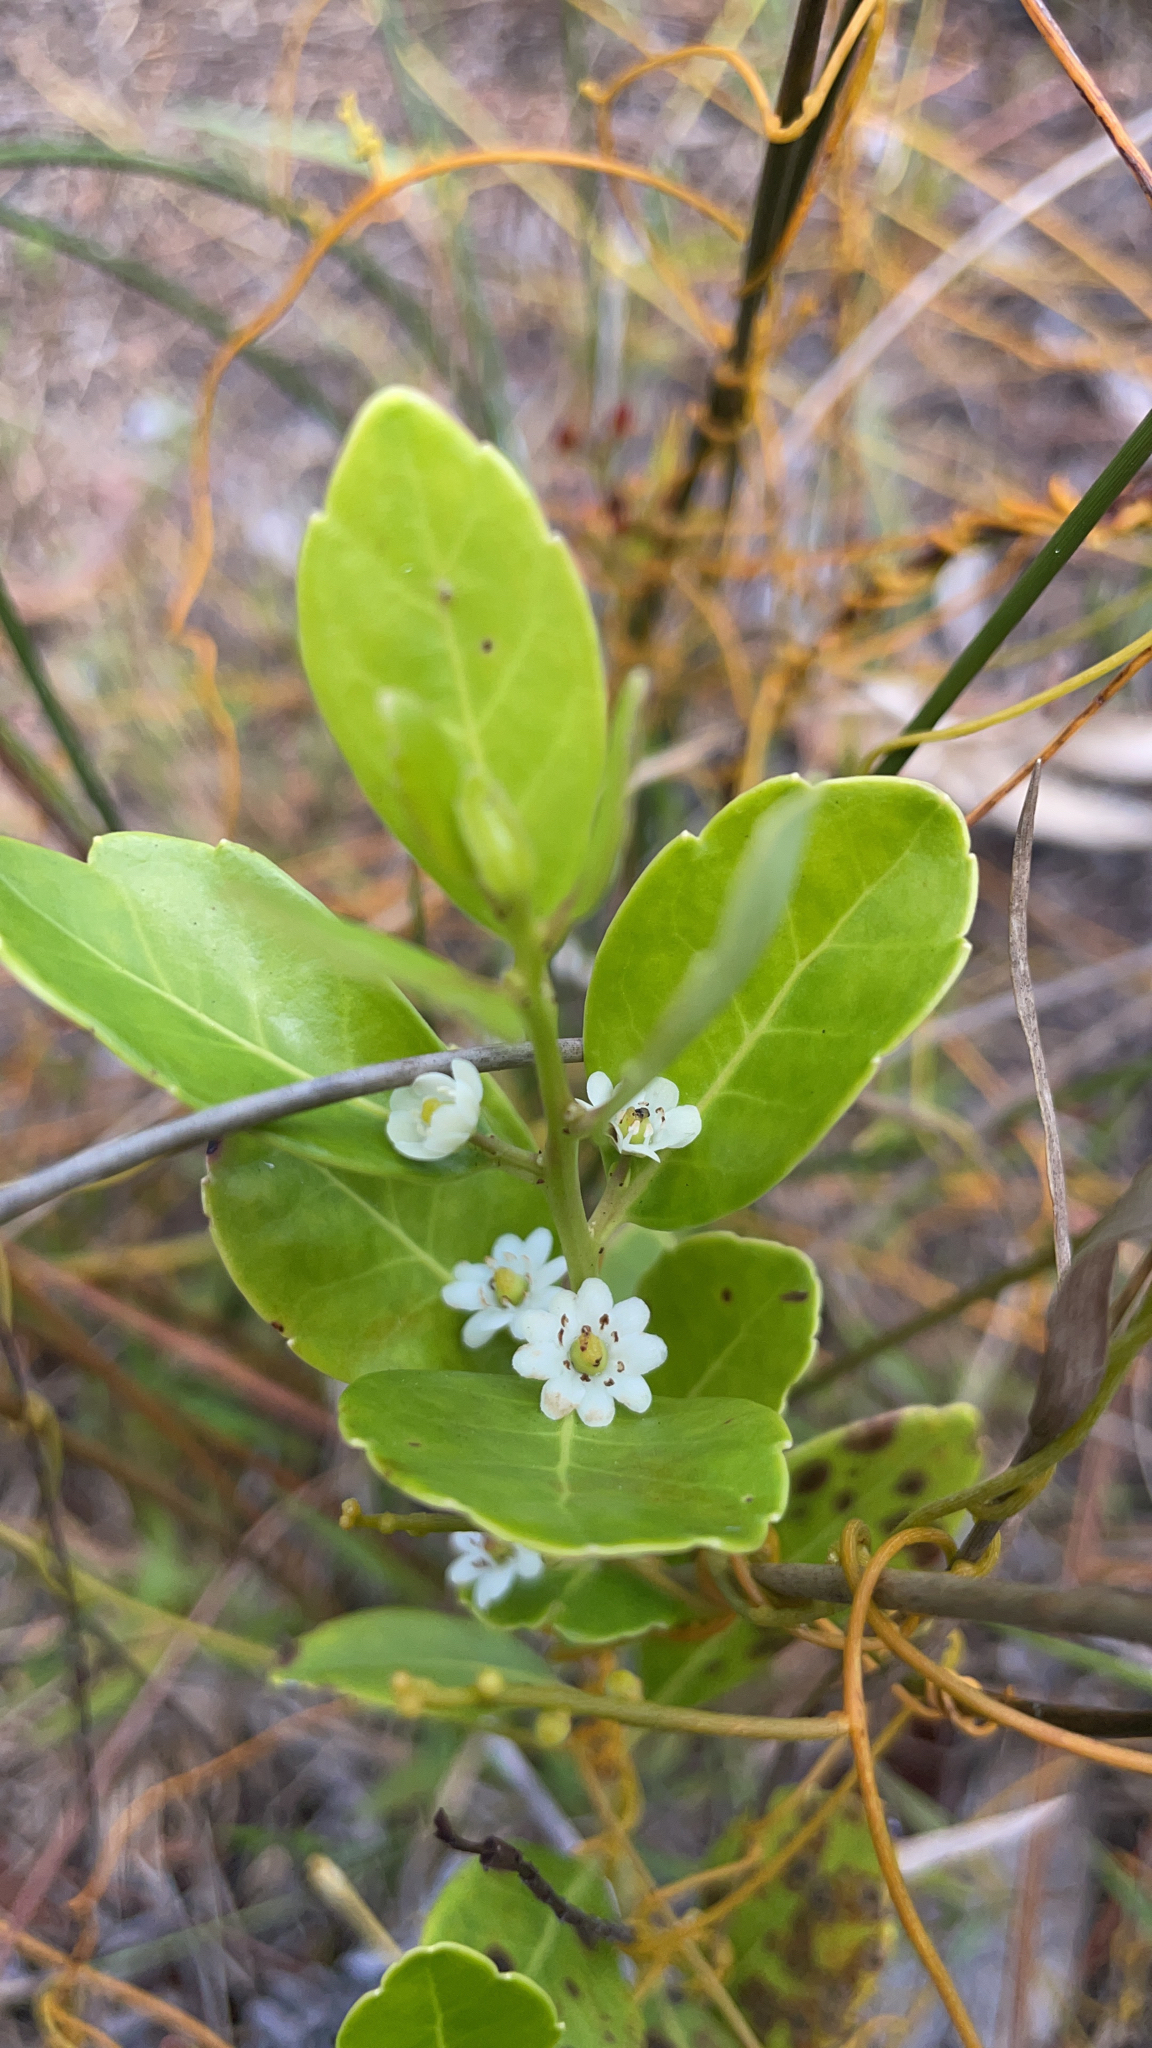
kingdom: Plantae
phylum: Tracheophyta
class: Magnoliopsida
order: Aquifoliales
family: Aquifoliaceae
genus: Ilex
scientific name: Ilex glabra
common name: Bitter gallberry
